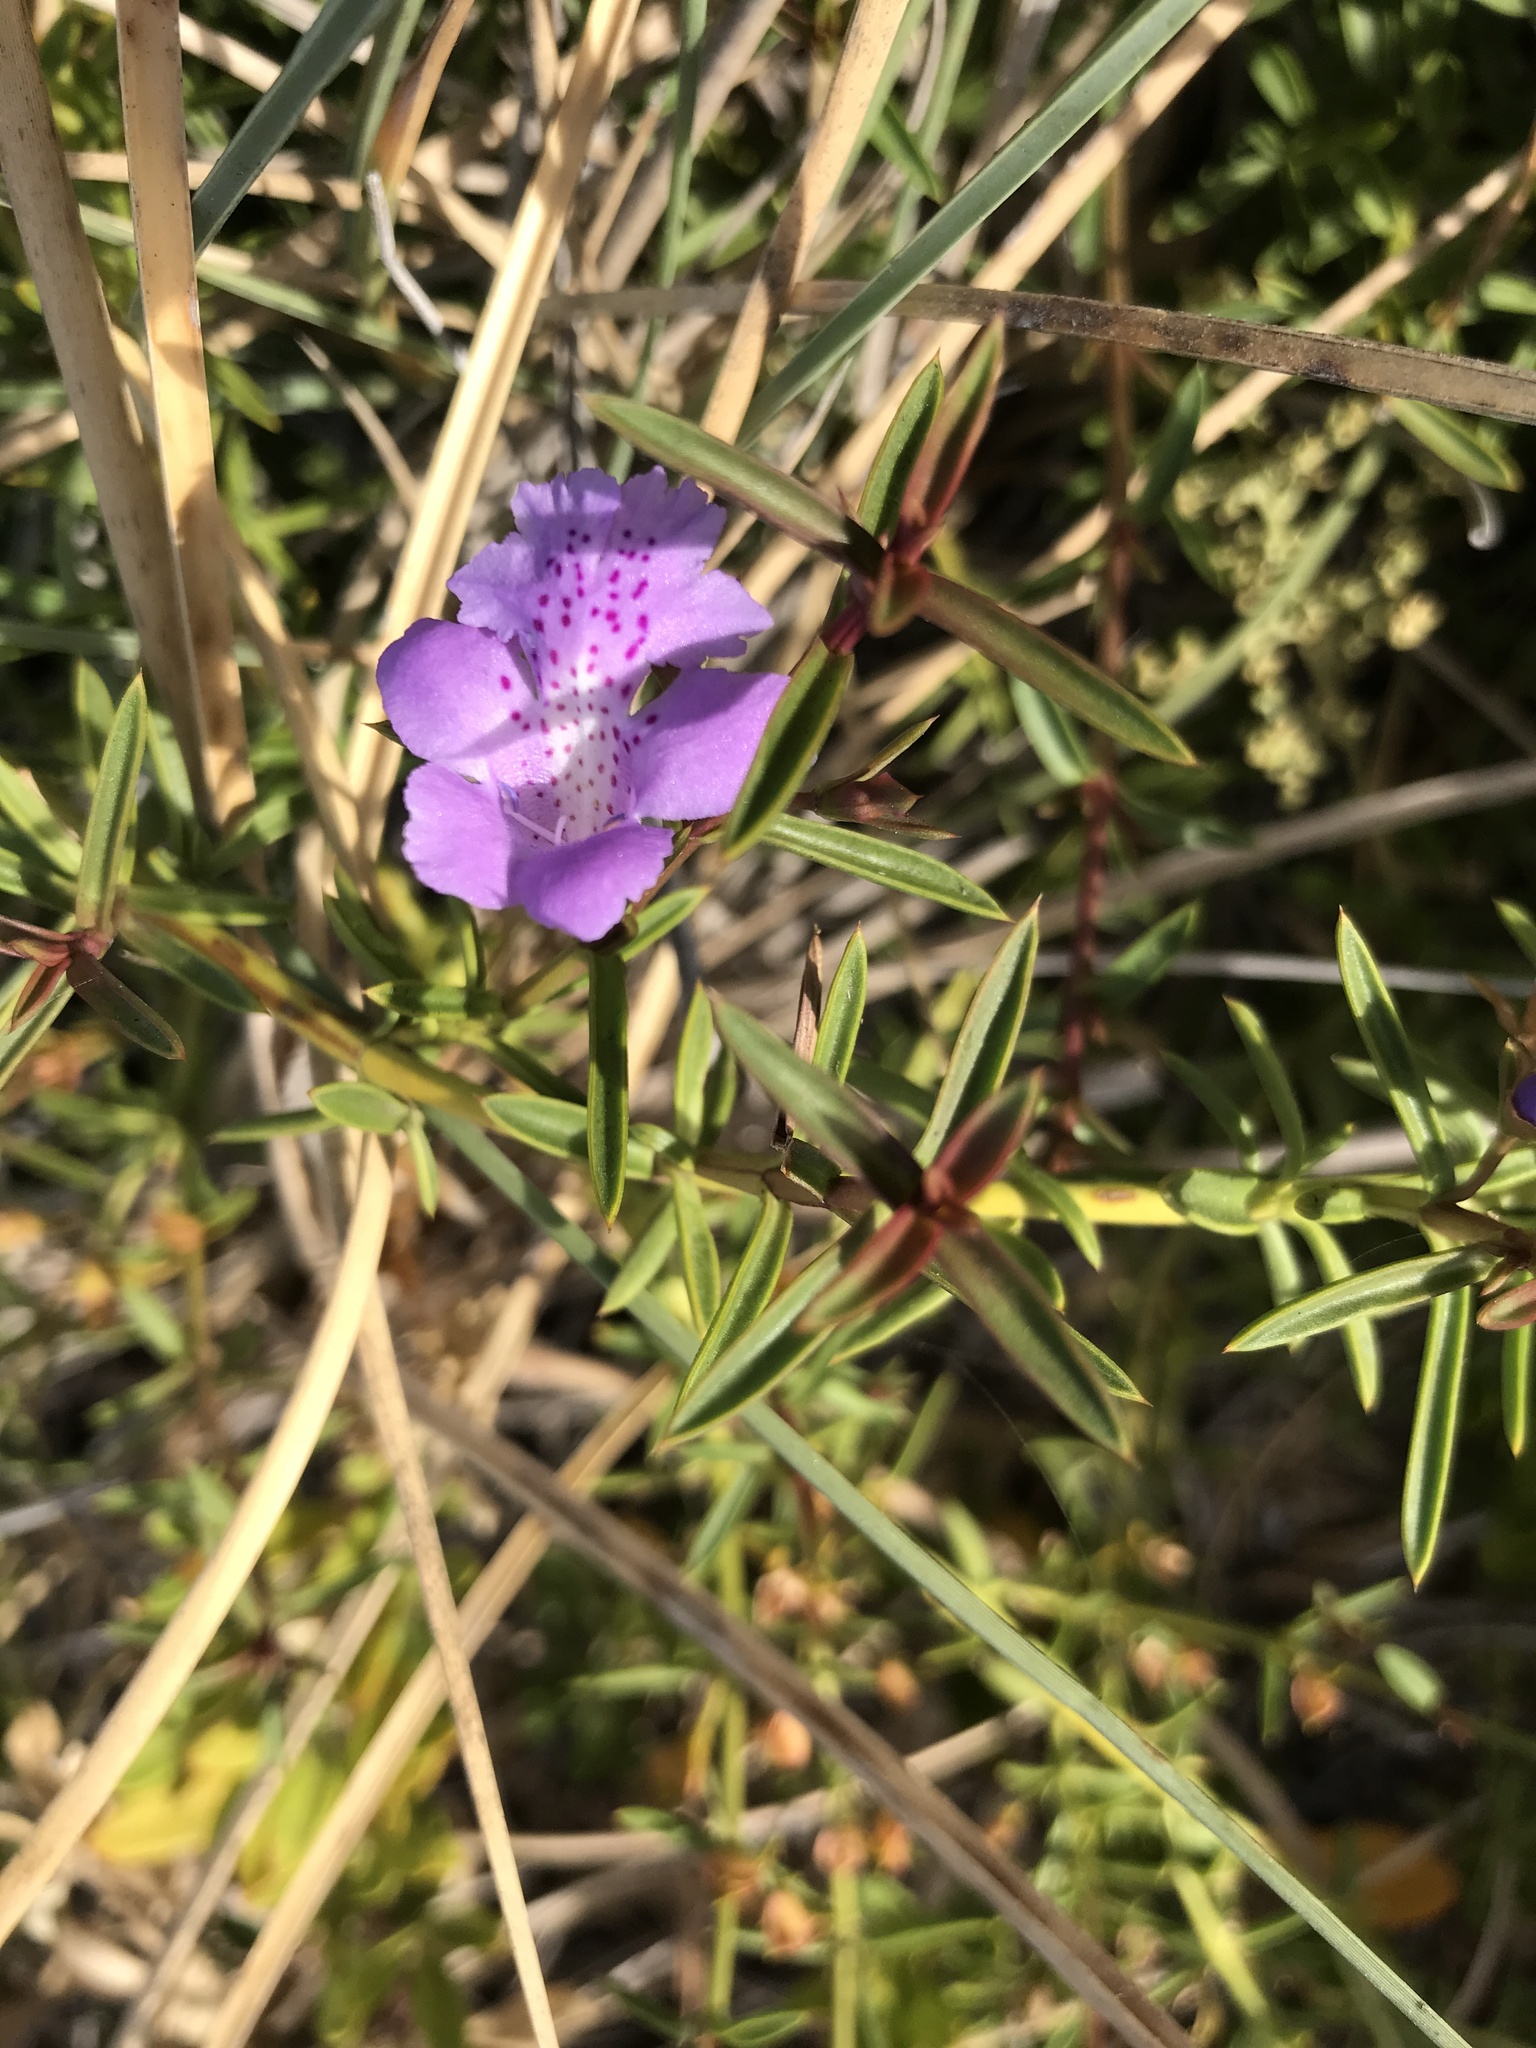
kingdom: Plantae
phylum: Tracheophyta
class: Magnoliopsida
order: Lamiales
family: Lamiaceae
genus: Hemiandra
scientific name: Hemiandra pungens
